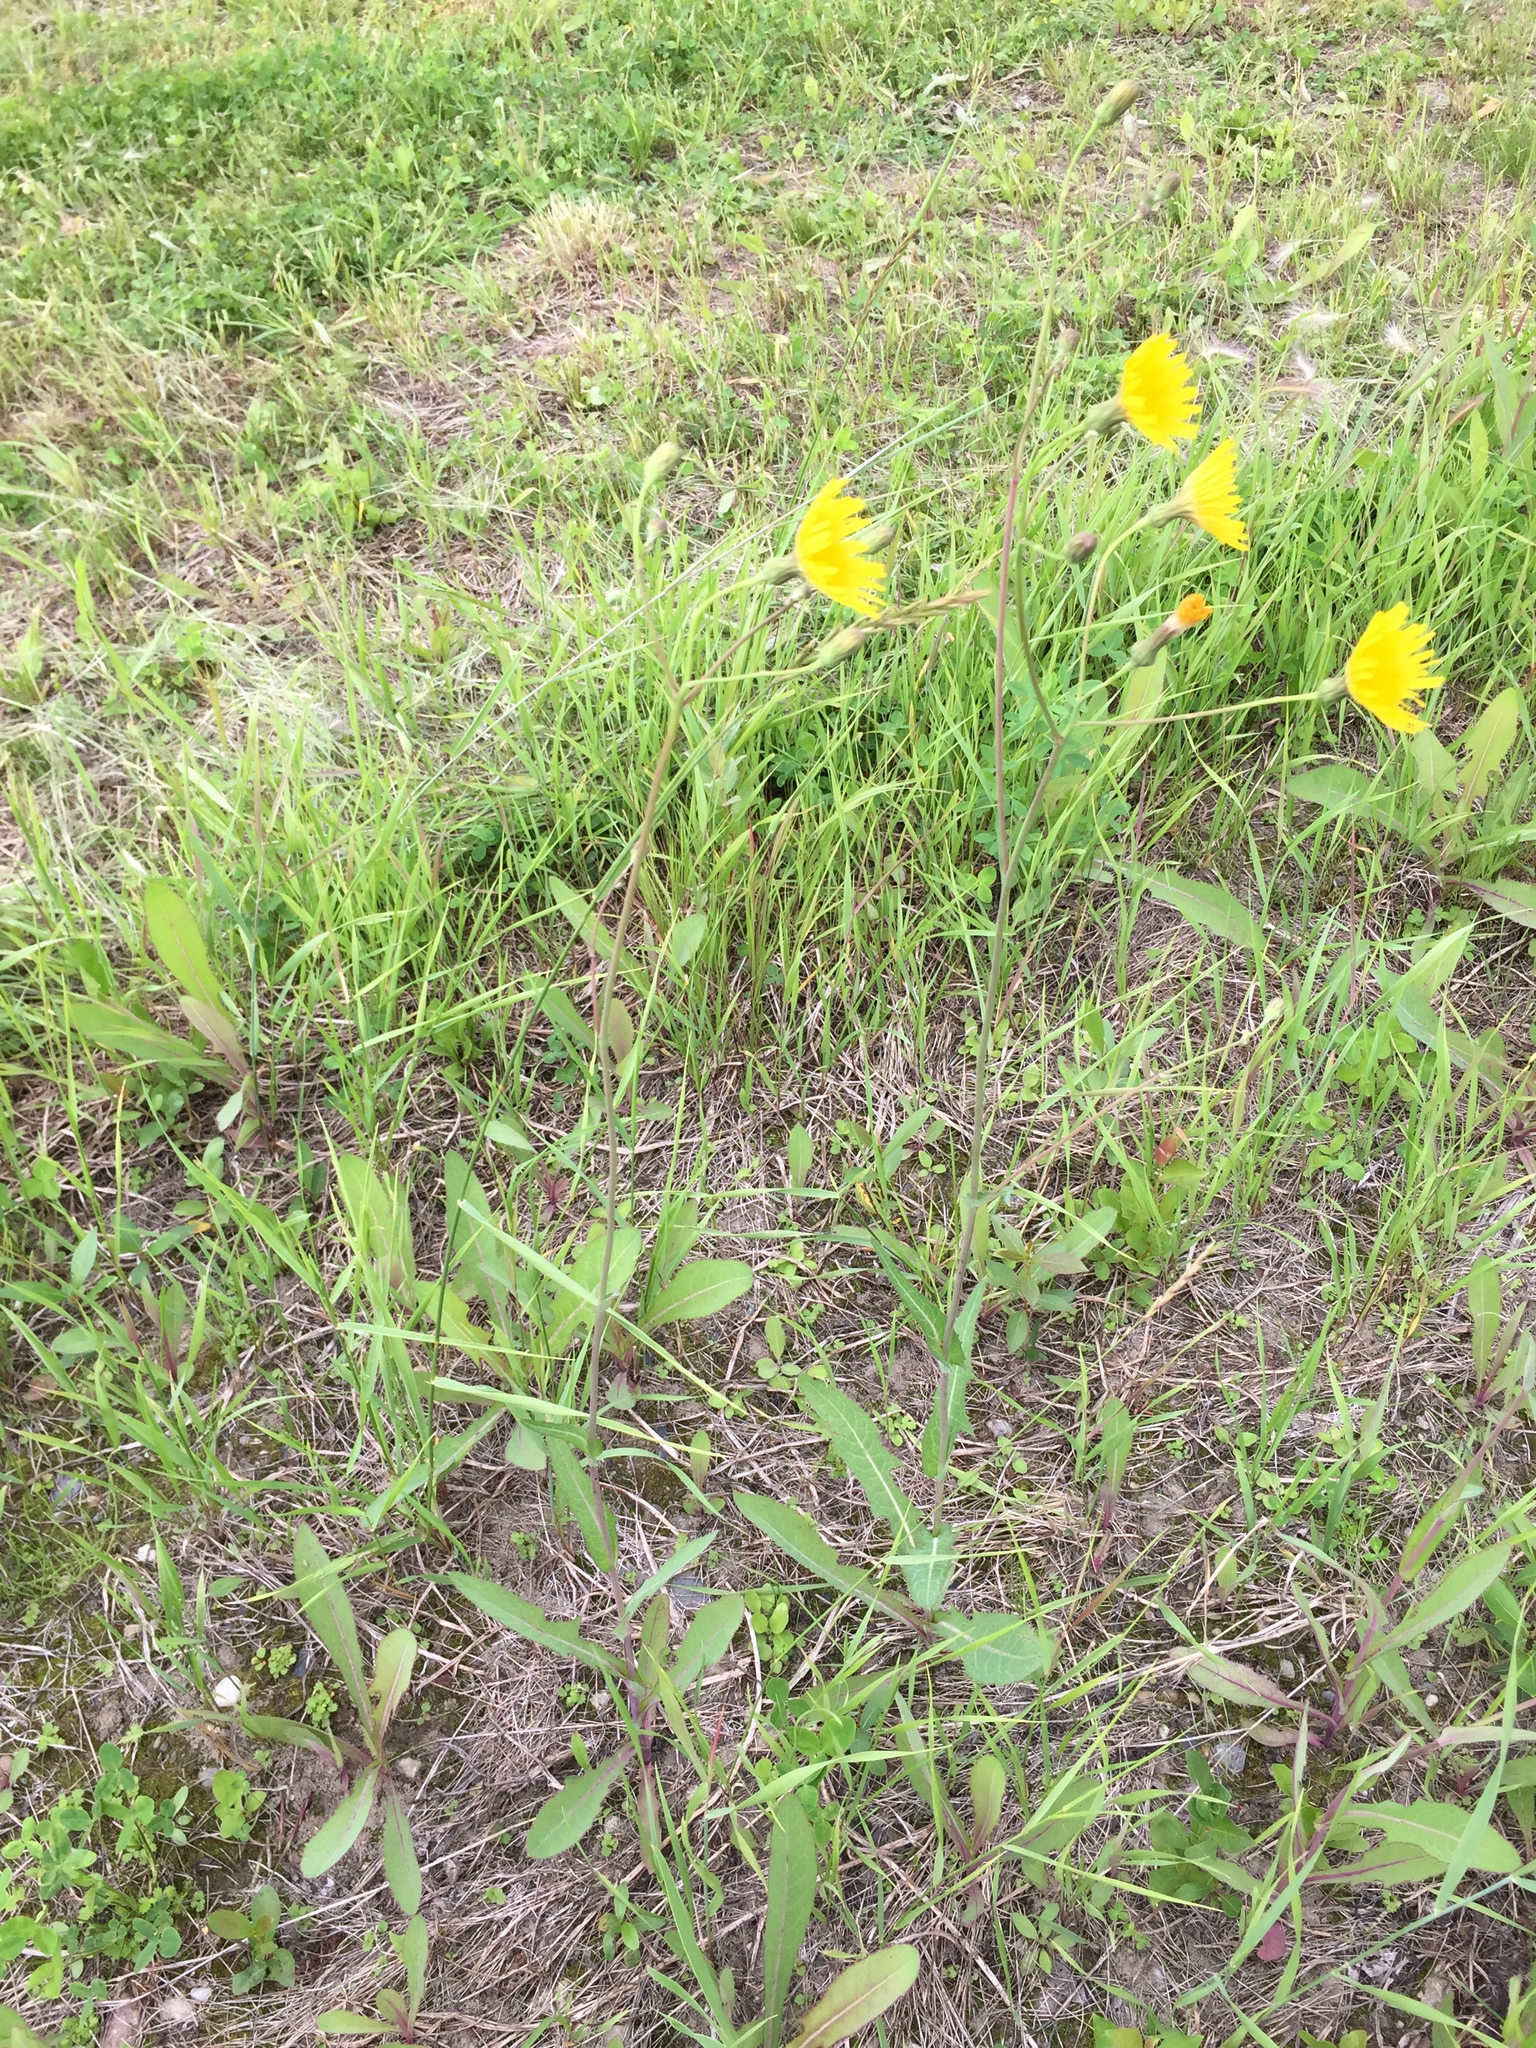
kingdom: Plantae
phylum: Tracheophyta
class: Magnoliopsida
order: Asterales
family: Asteraceae
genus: Sonchus
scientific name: Sonchus arvensis
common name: Perennial sow-thistle
